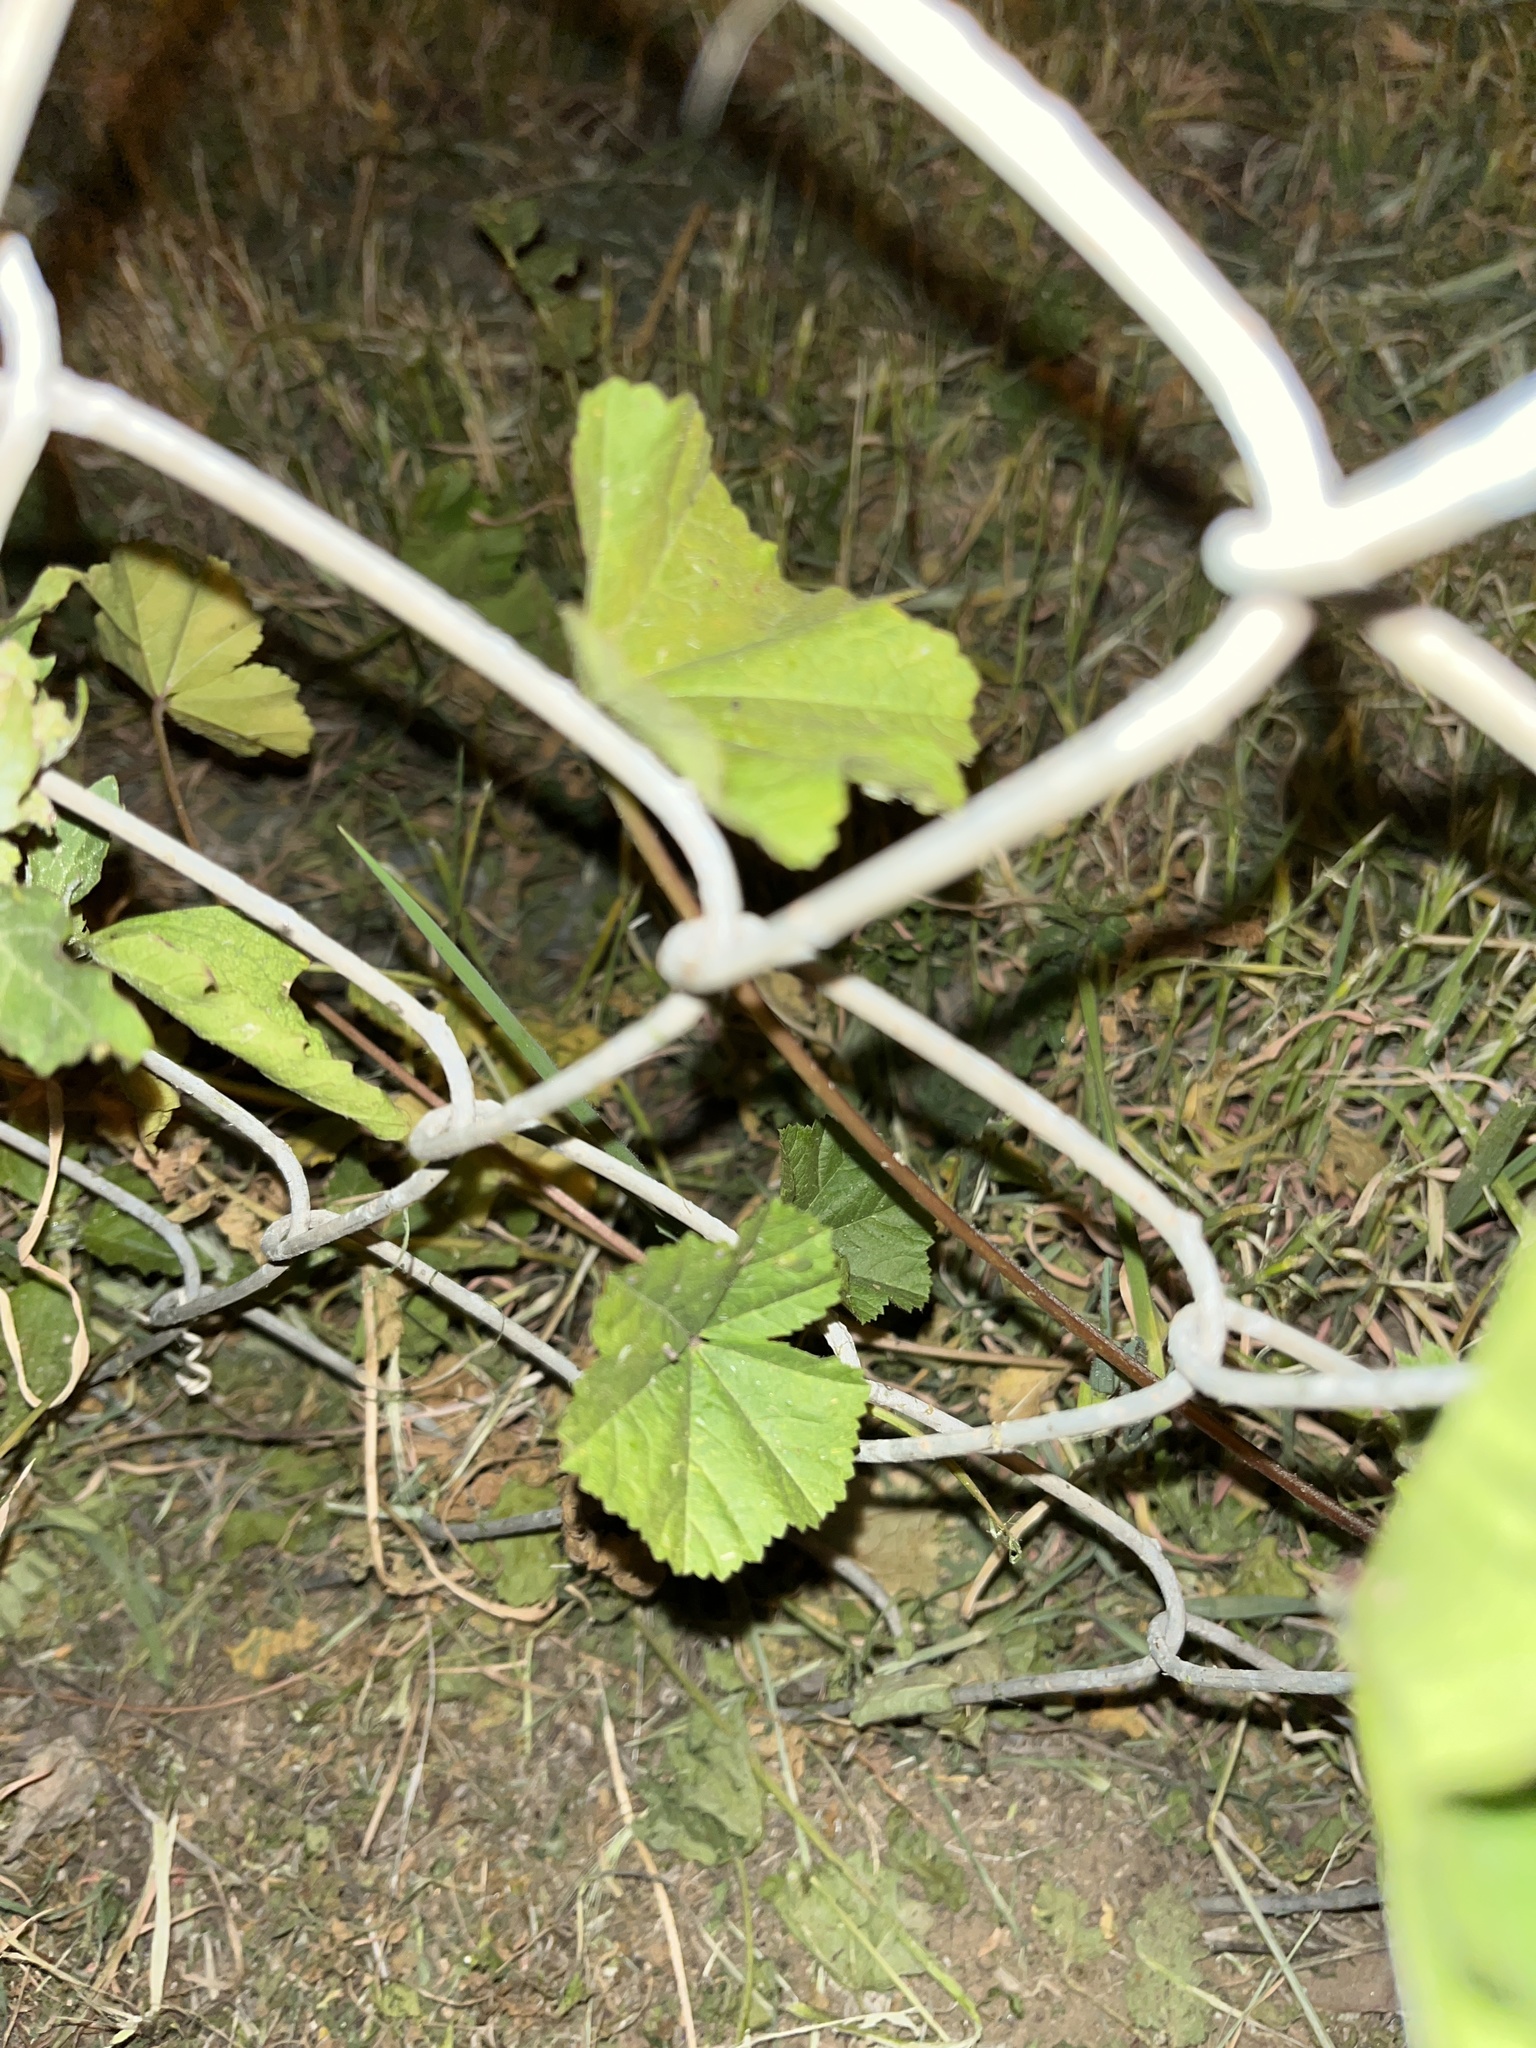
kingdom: Plantae
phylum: Tracheophyta
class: Magnoliopsida
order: Malvales
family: Malvaceae
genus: Malva
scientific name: Malva
